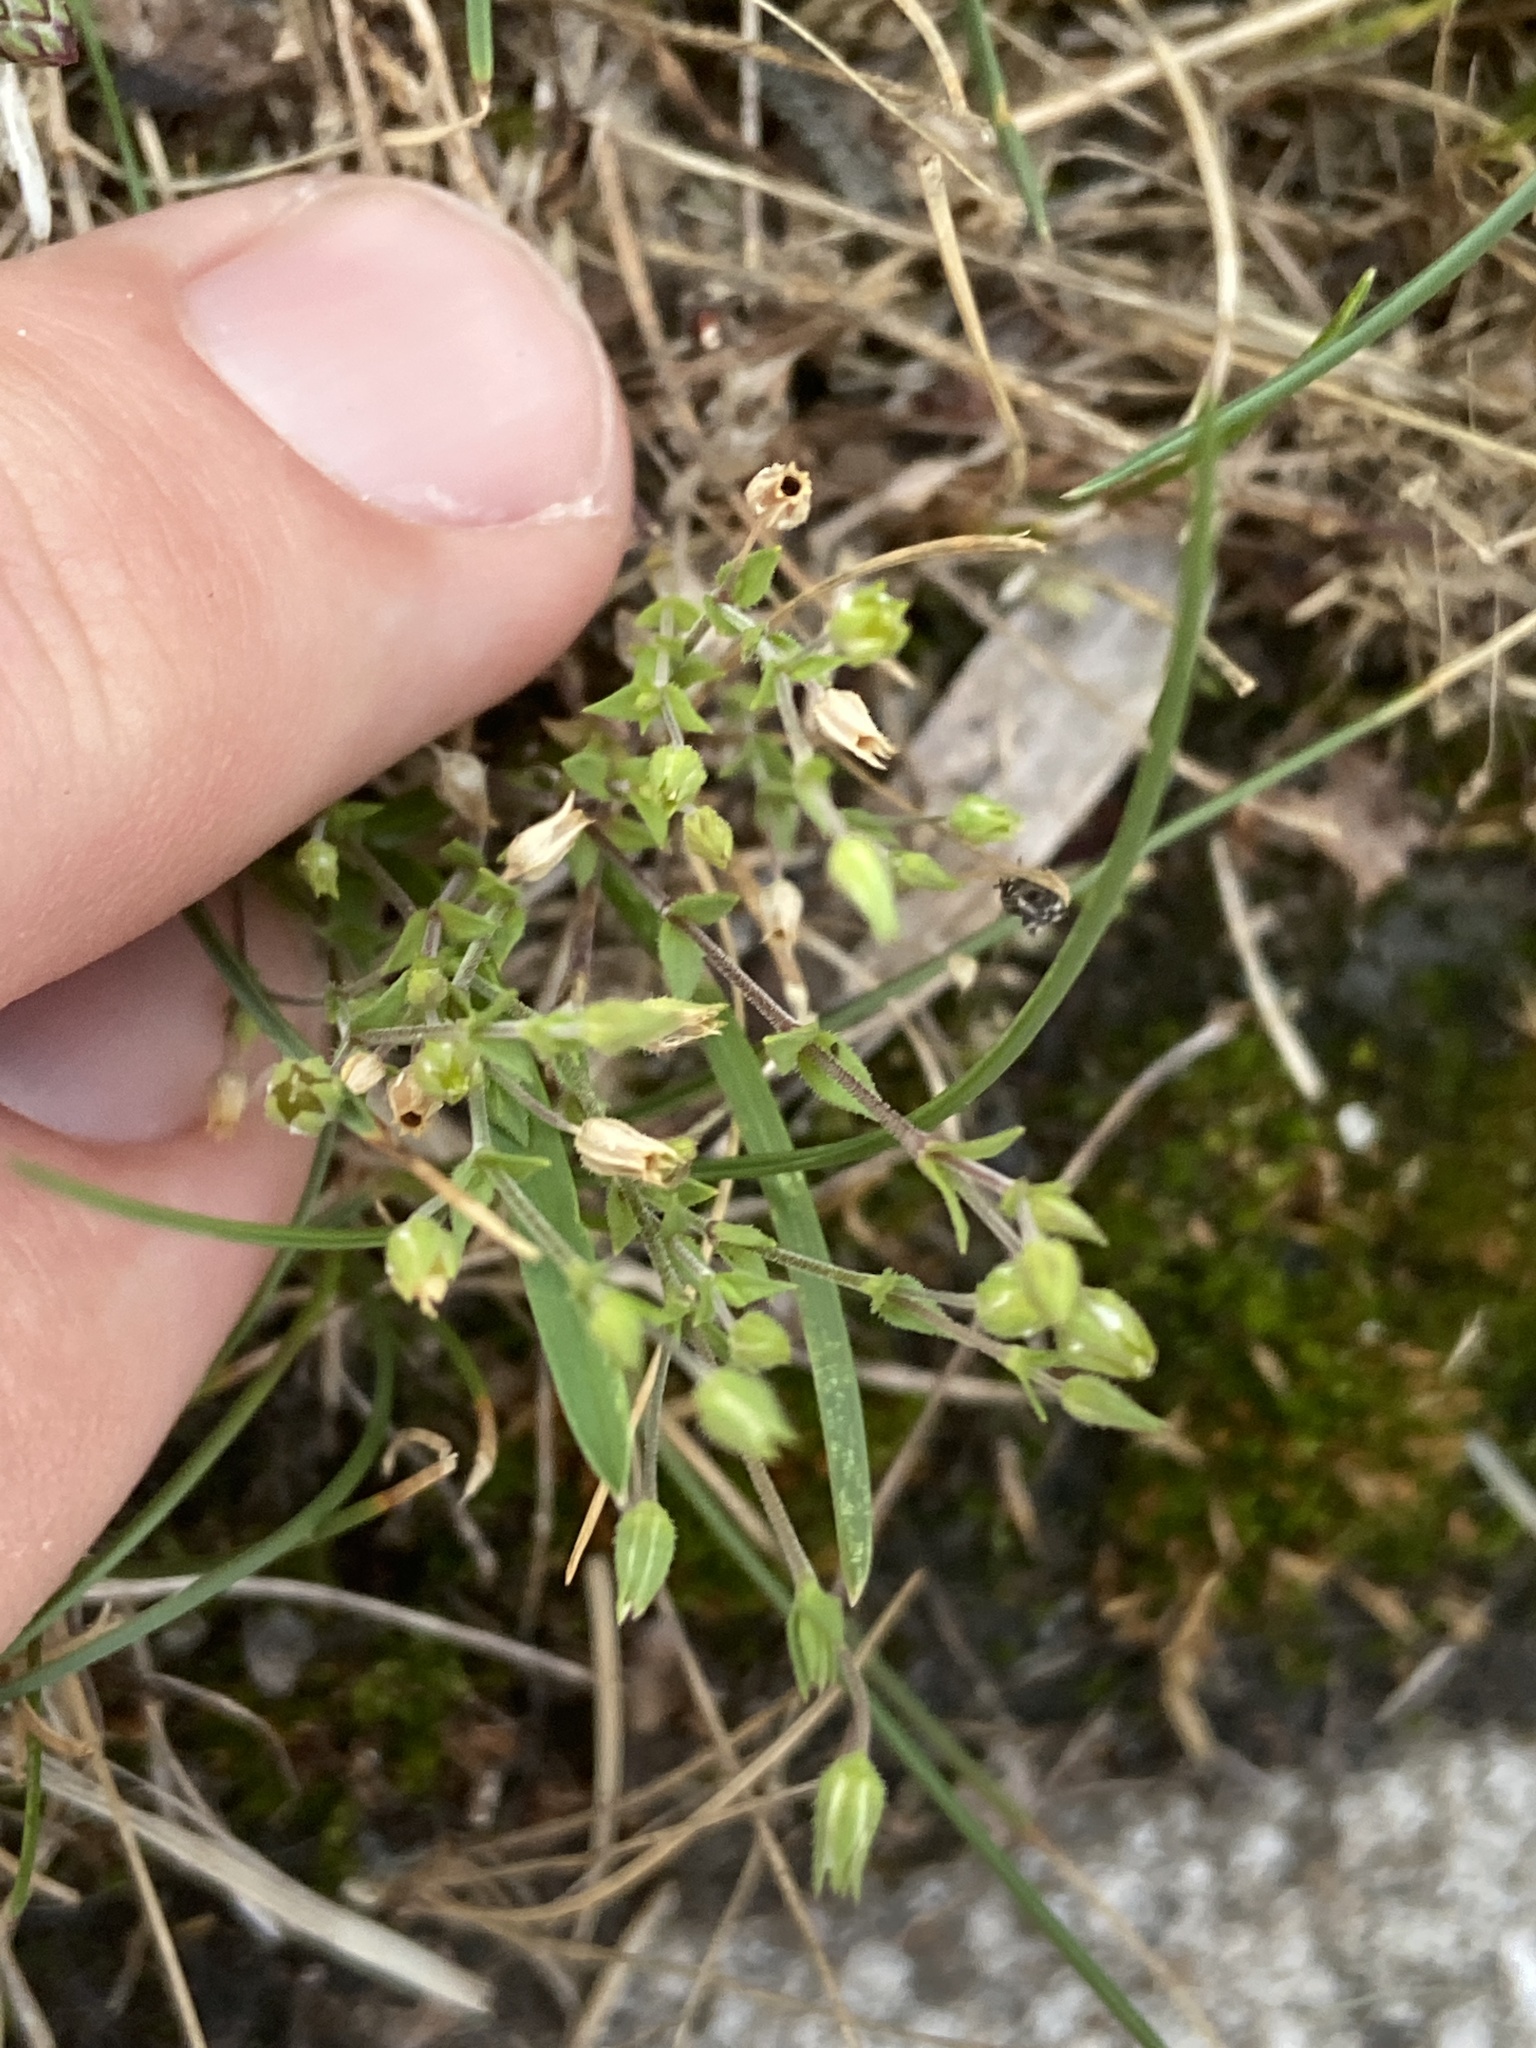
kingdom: Plantae
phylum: Tracheophyta
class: Magnoliopsida
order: Caryophyllales
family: Caryophyllaceae
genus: Arenaria
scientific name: Arenaria serpyllifolia
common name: Thyme-leaved sandwort
